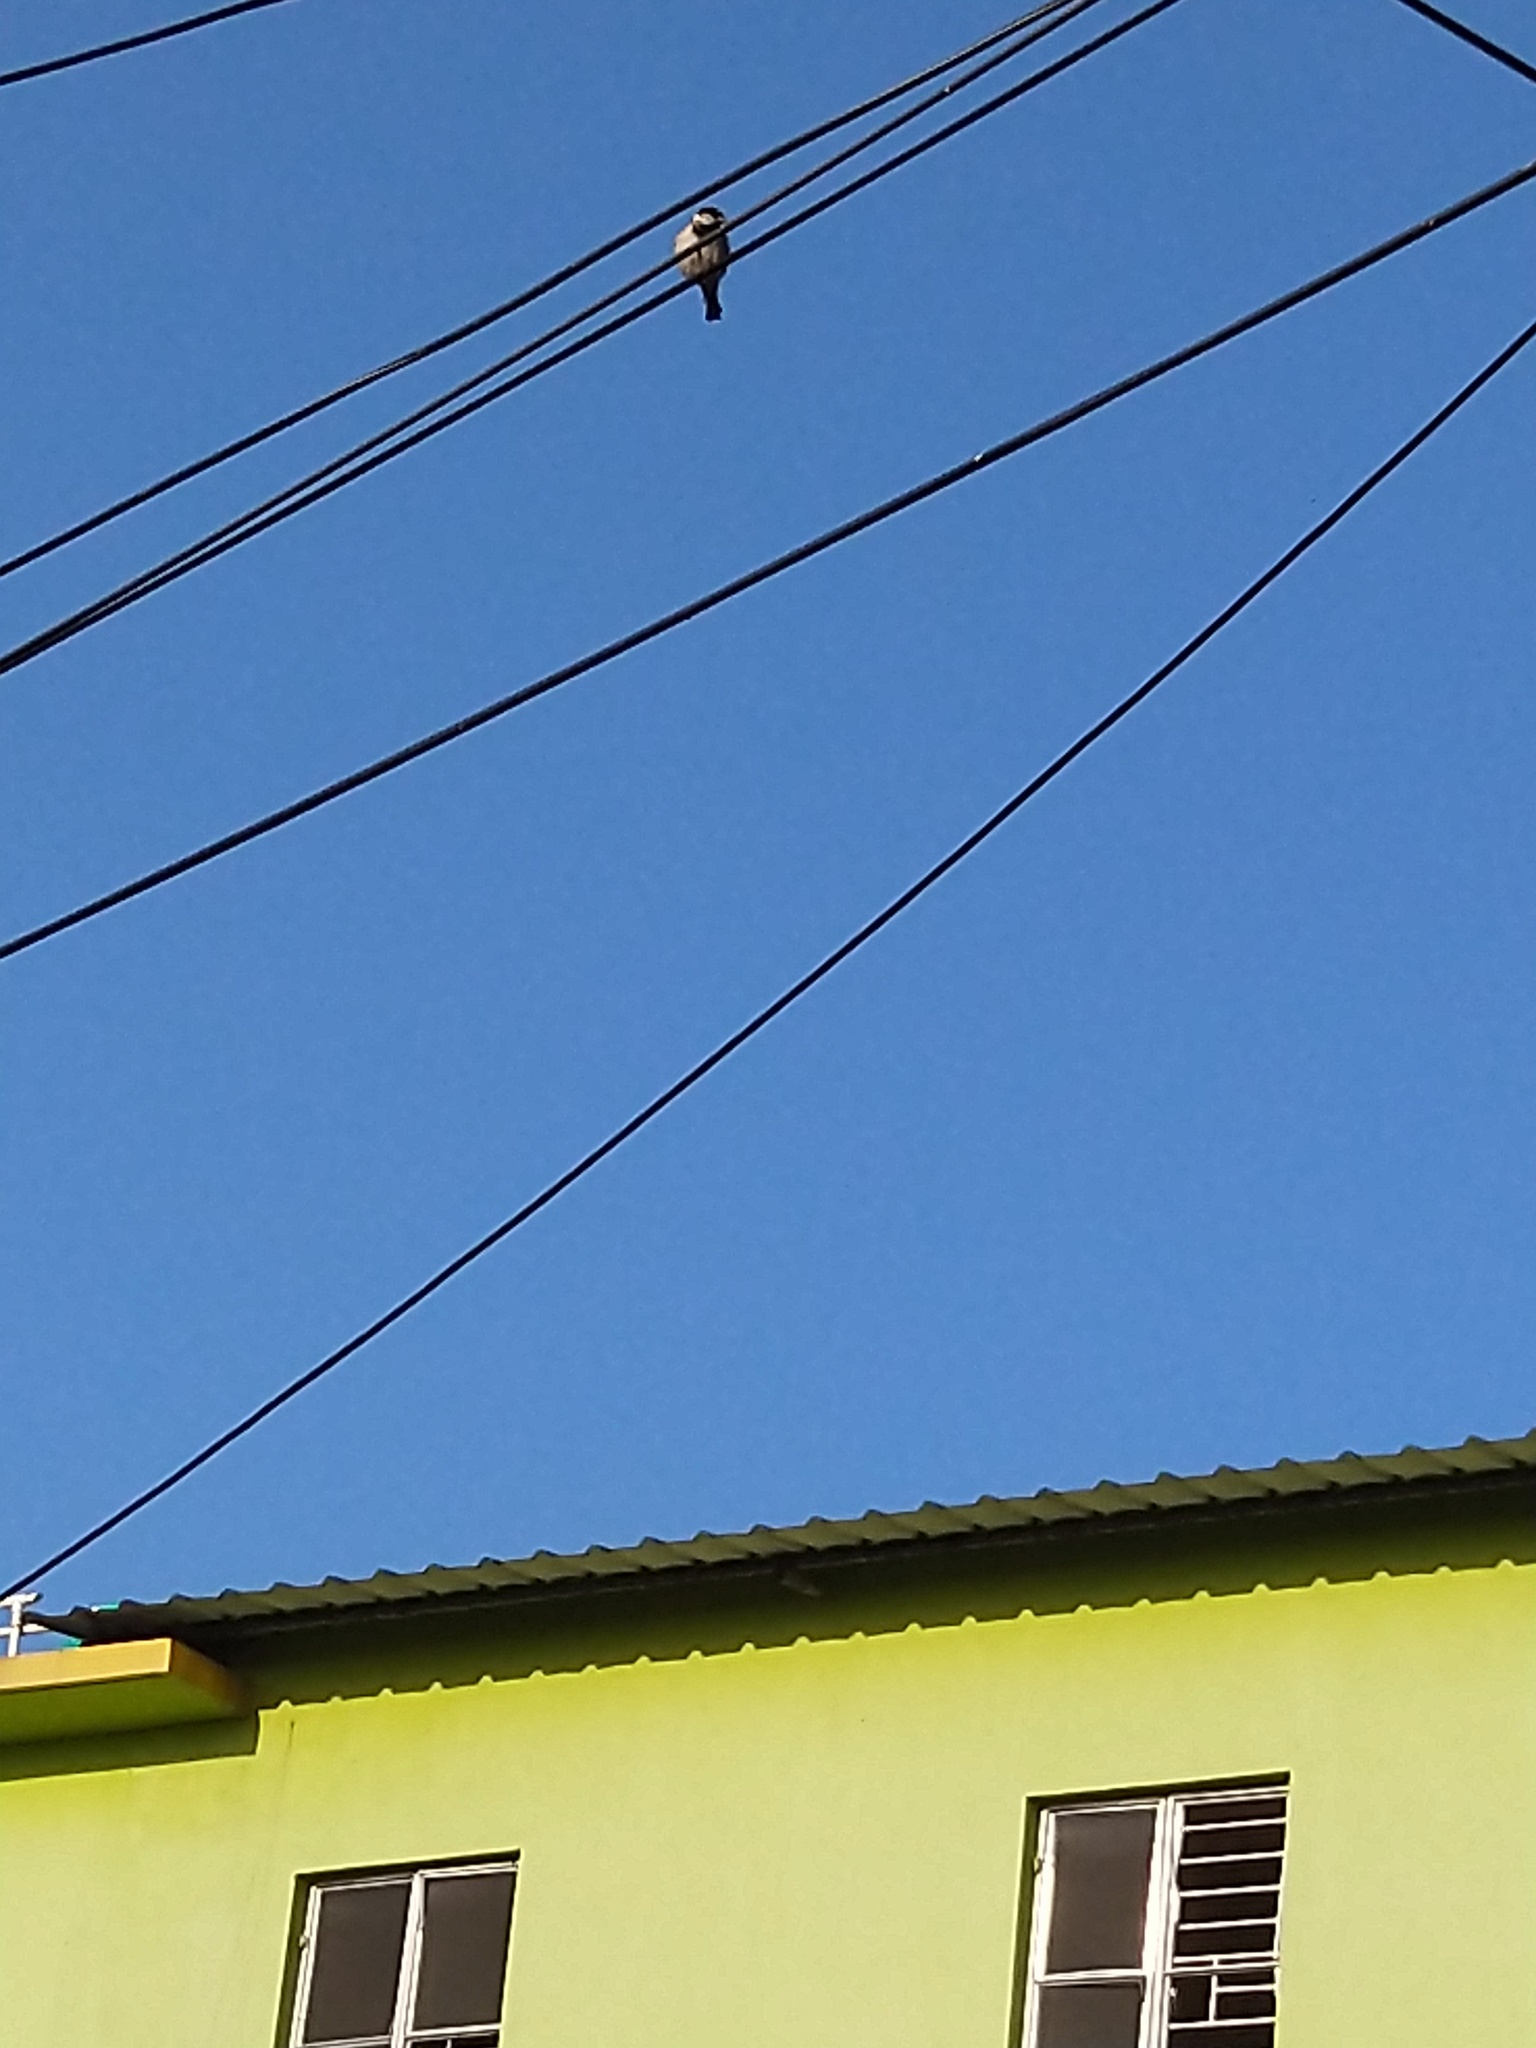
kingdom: Animalia
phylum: Chordata
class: Aves
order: Passeriformes
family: Passeridae
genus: Passer
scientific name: Passer domesticus
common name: House sparrow
